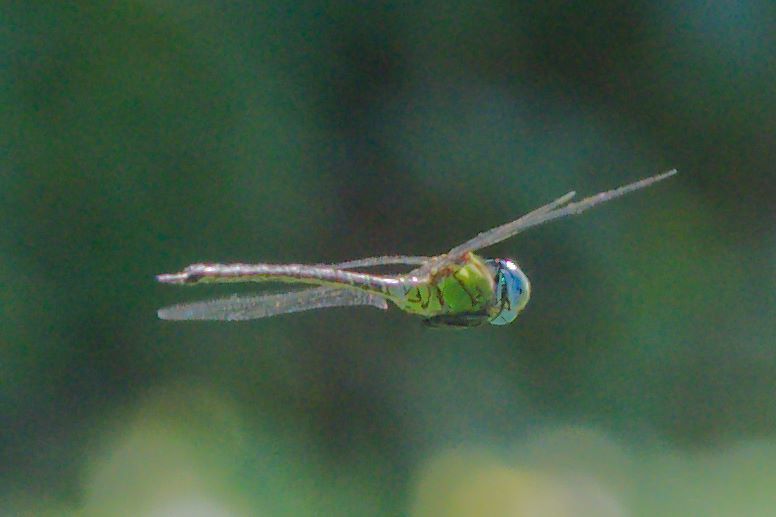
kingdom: Animalia
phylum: Arthropoda
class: Insecta
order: Odonata
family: Aeshnidae
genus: Coryphaeschna
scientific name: Coryphaeschna adnexa
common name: Blue-faced darner
